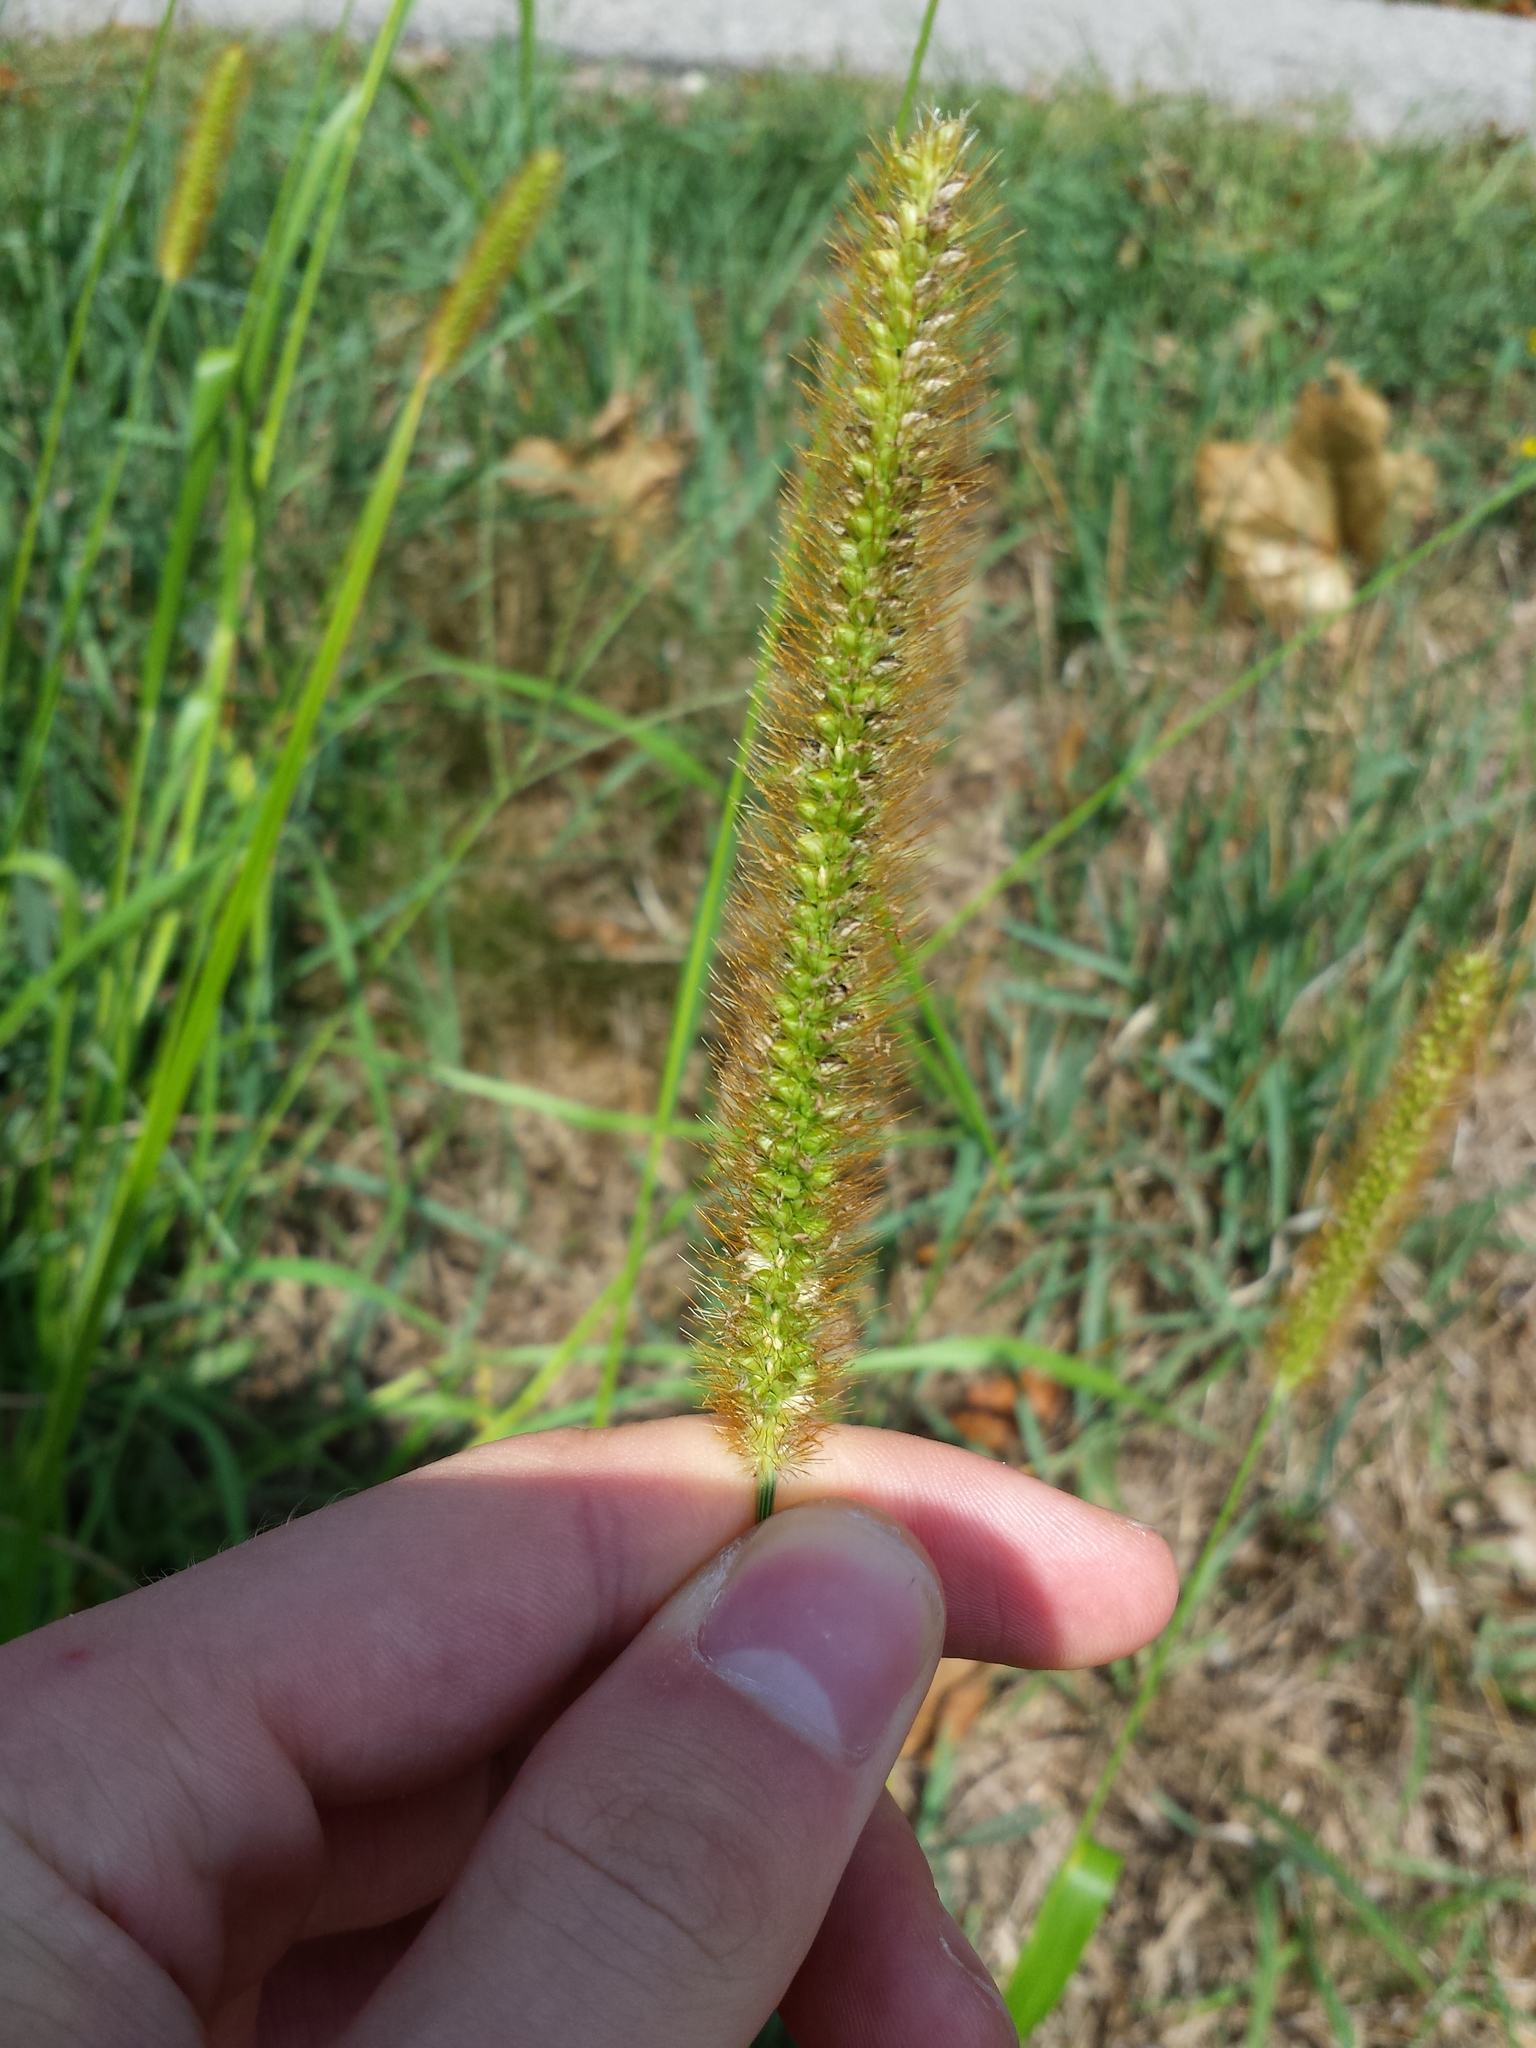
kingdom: Plantae
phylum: Tracheophyta
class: Liliopsida
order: Poales
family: Poaceae
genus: Setaria
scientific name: Setaria pumila
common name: Yellow bristle-grass
